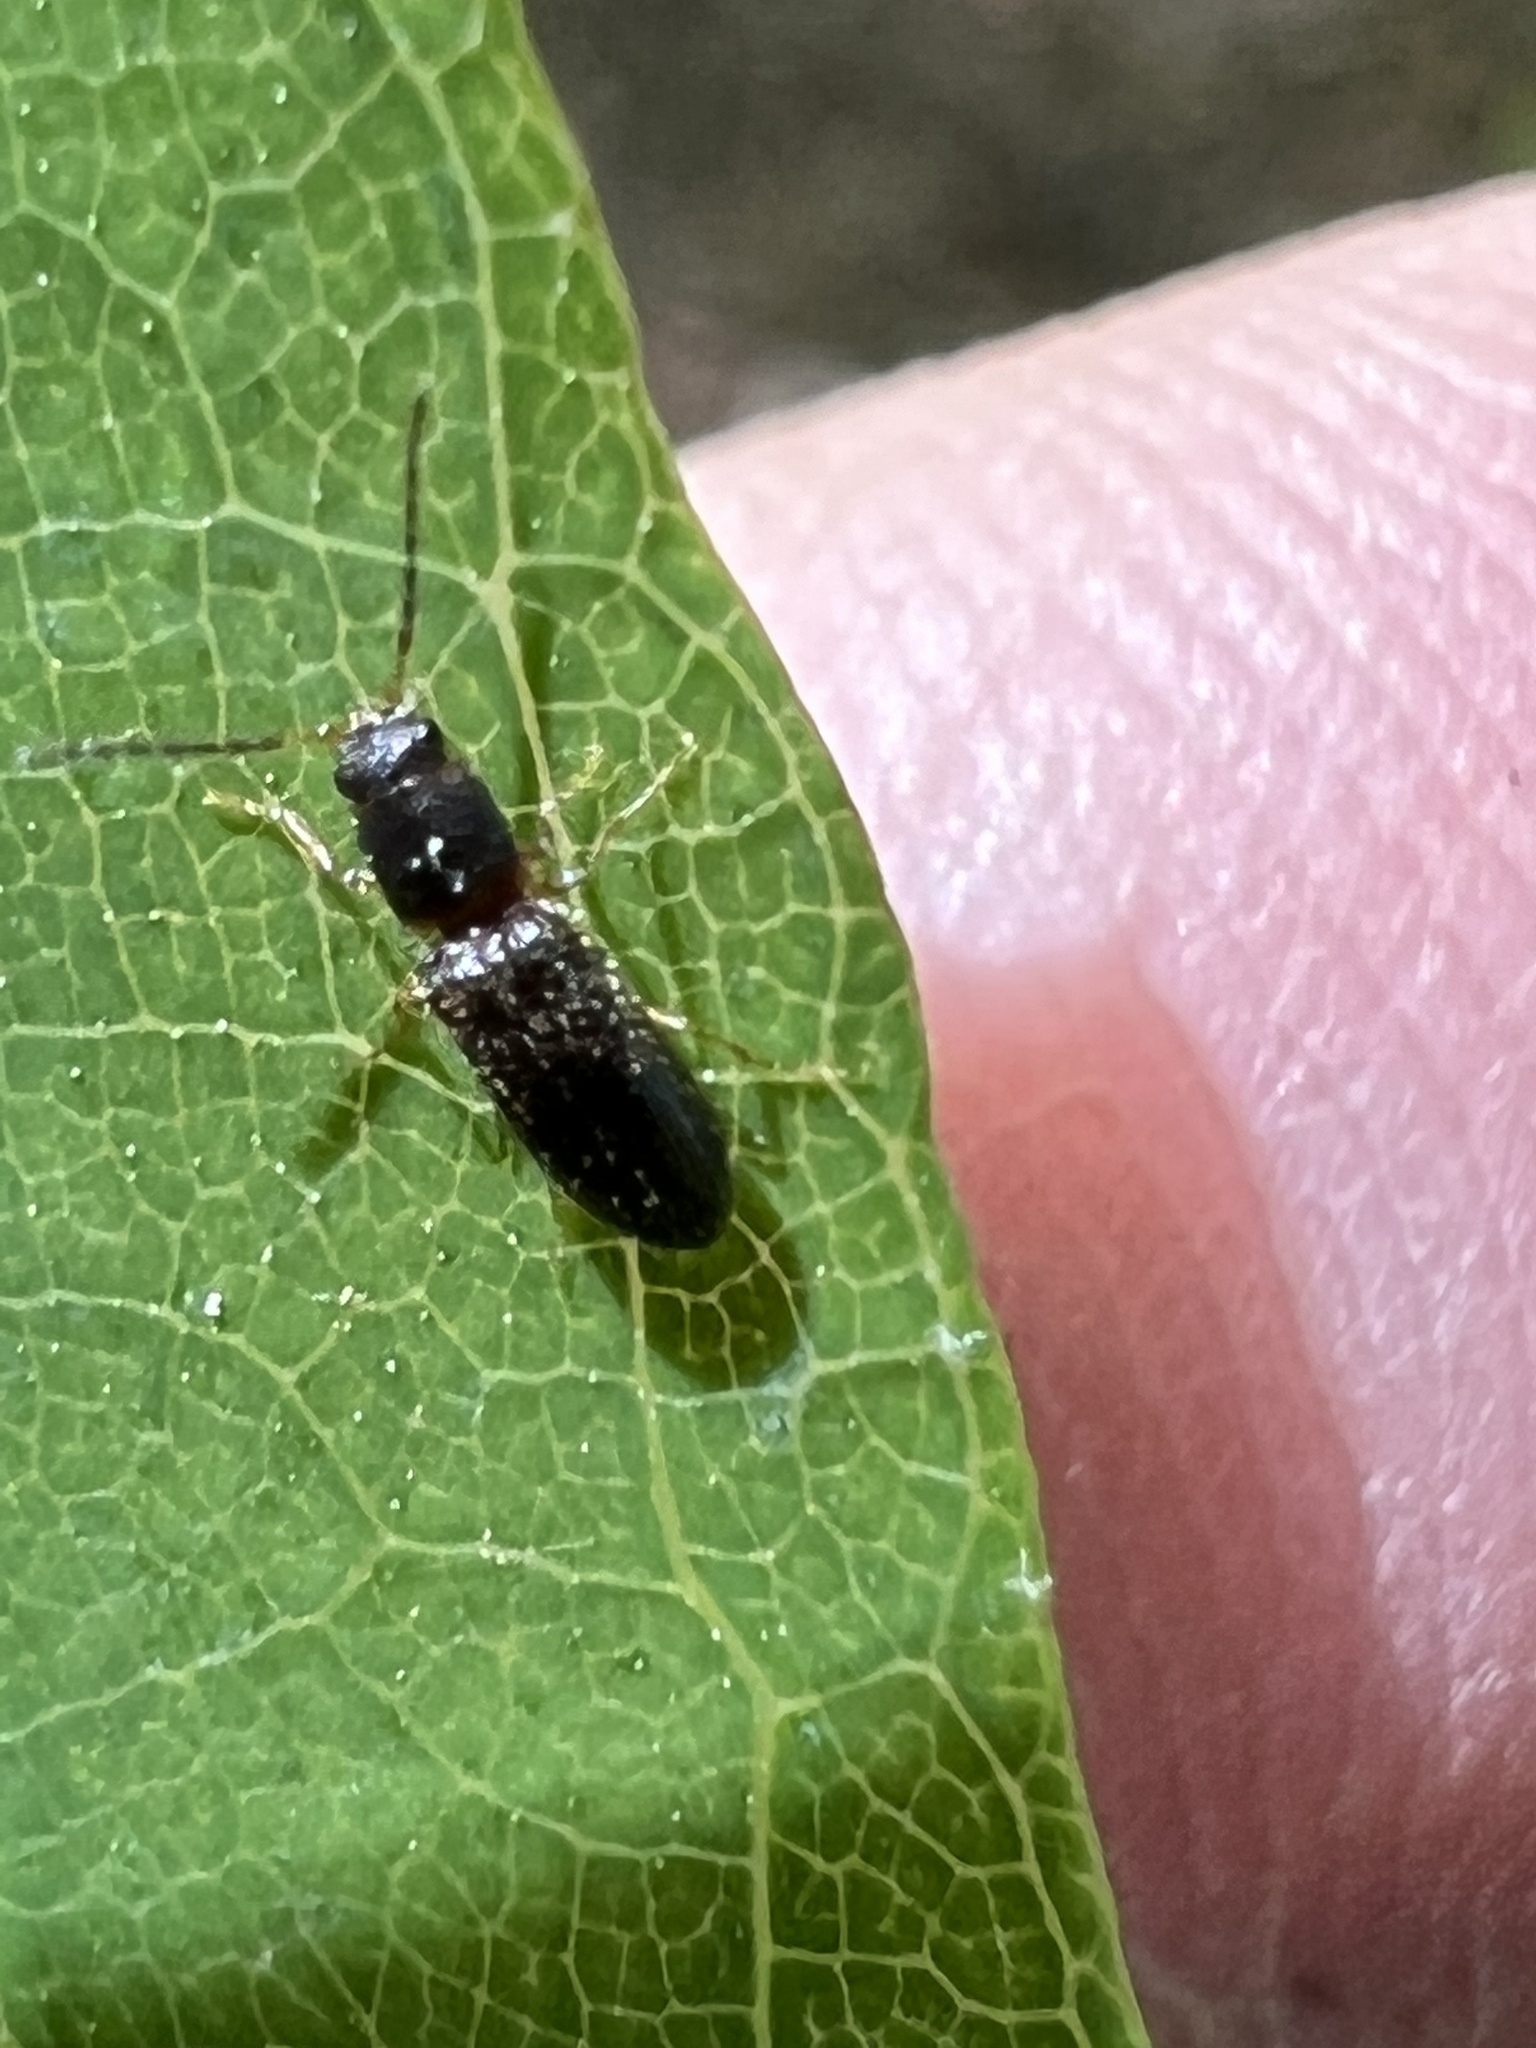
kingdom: Animalia
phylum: Arthropoda
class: Insecta
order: Coleoptera
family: Elateridae
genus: Tetralimonius
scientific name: Tetralimonius
